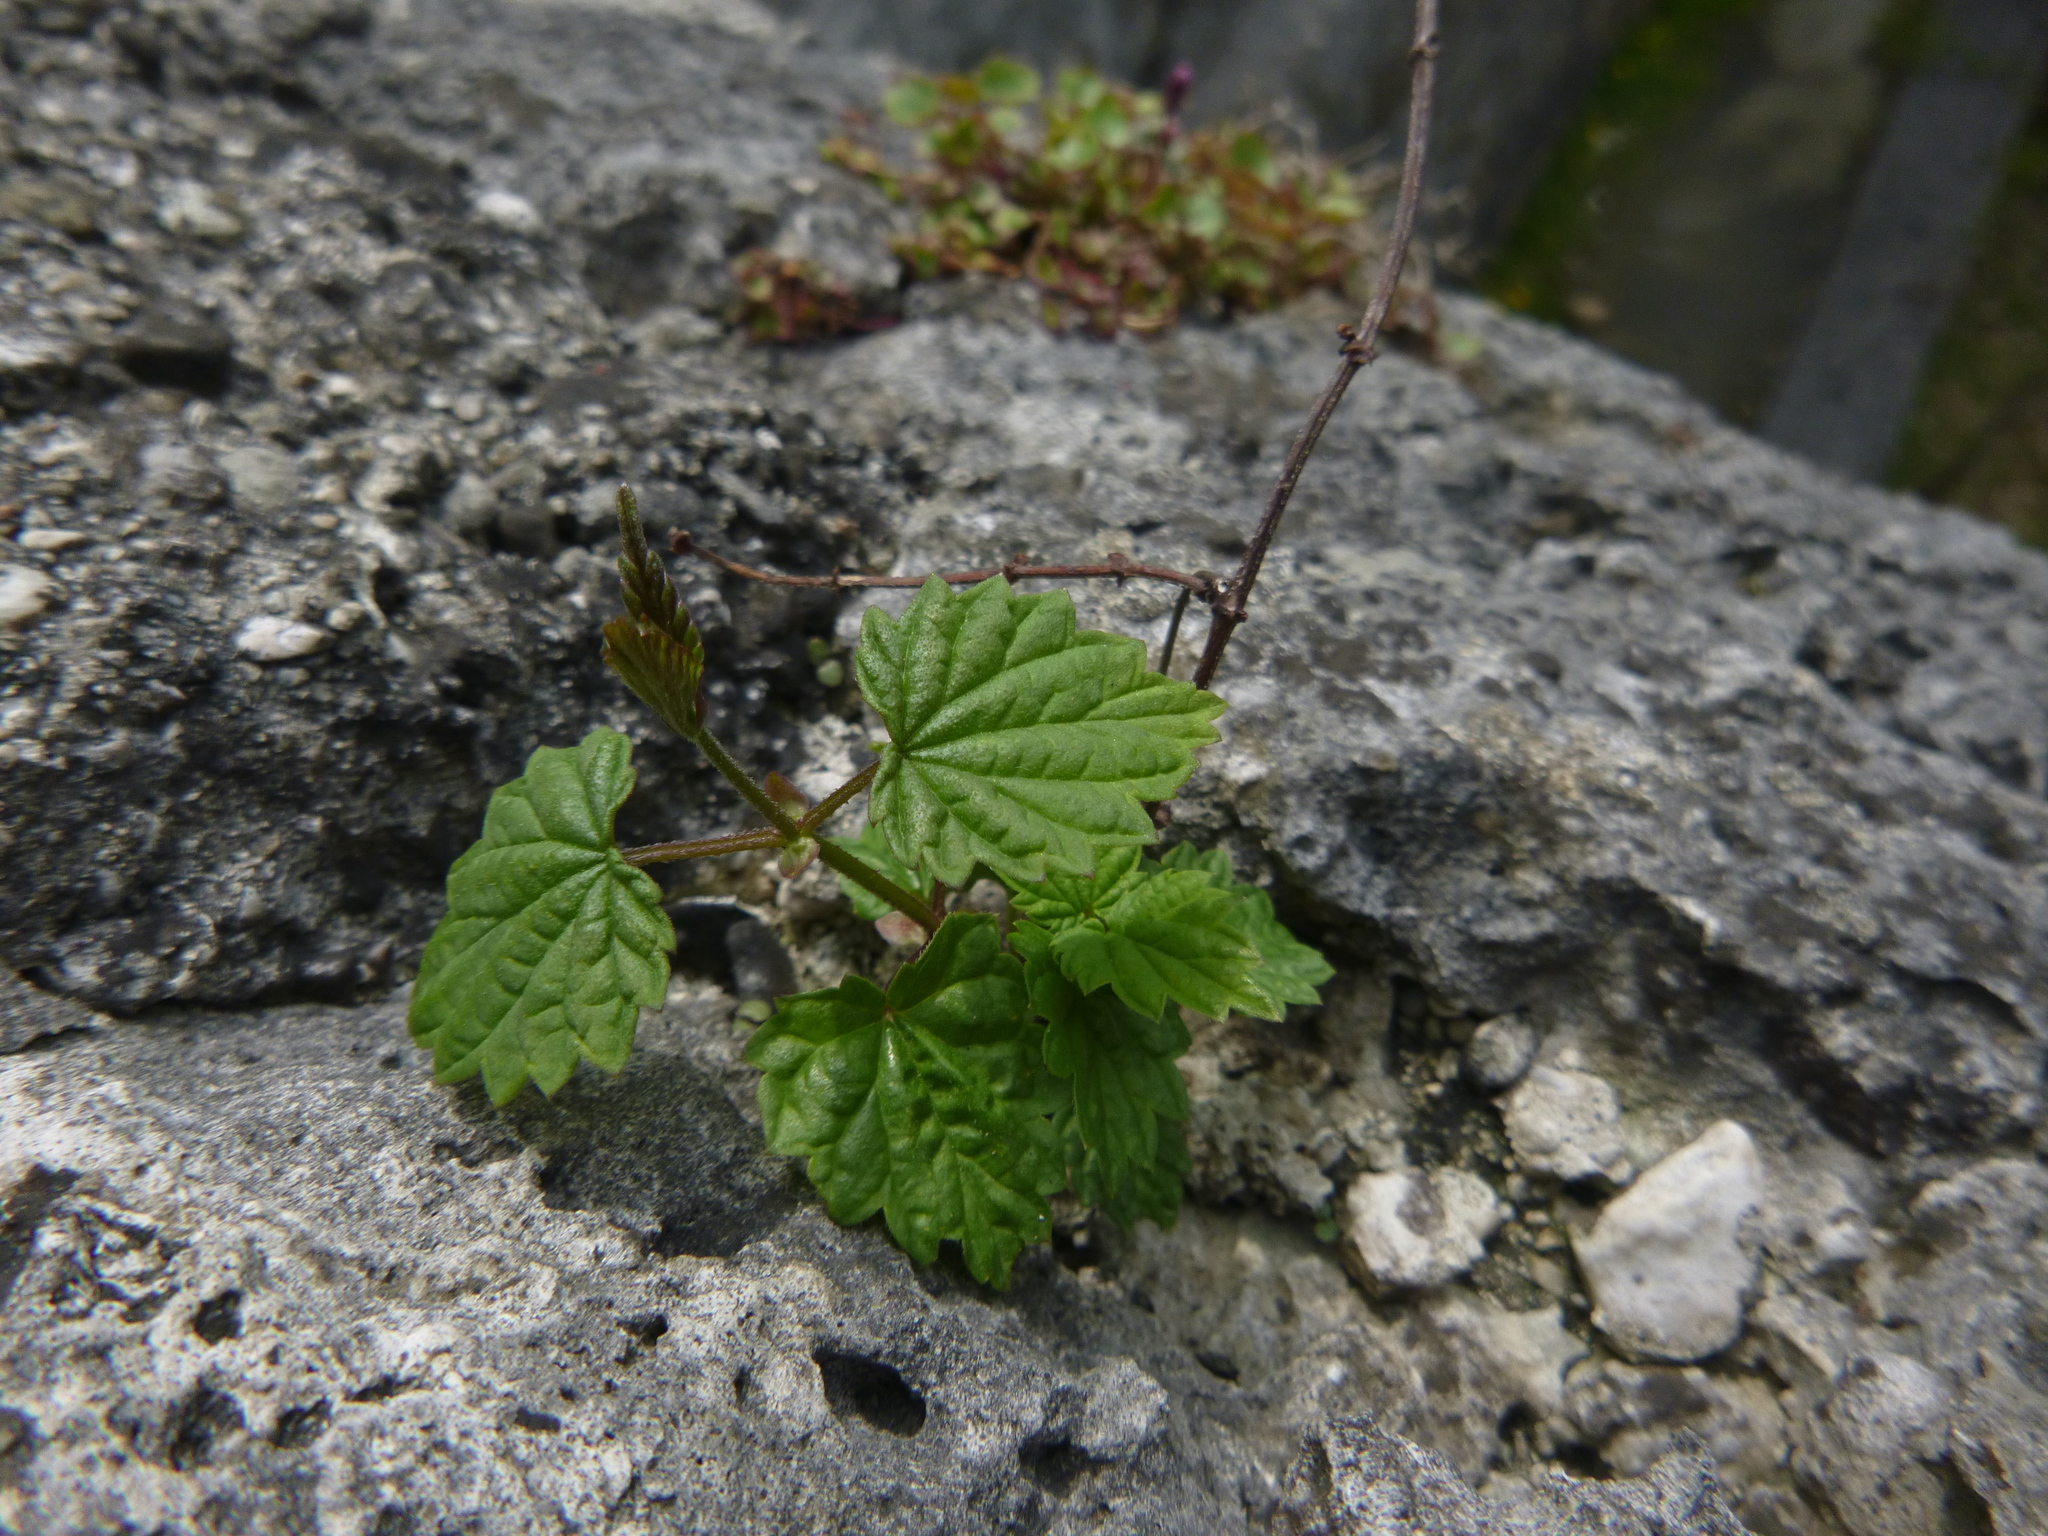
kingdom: Plantae
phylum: Tracheophyta
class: Magnoliopsida
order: Rosales
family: Cannabaceae
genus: Humulus
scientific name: Humulus lupulus
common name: Hop
